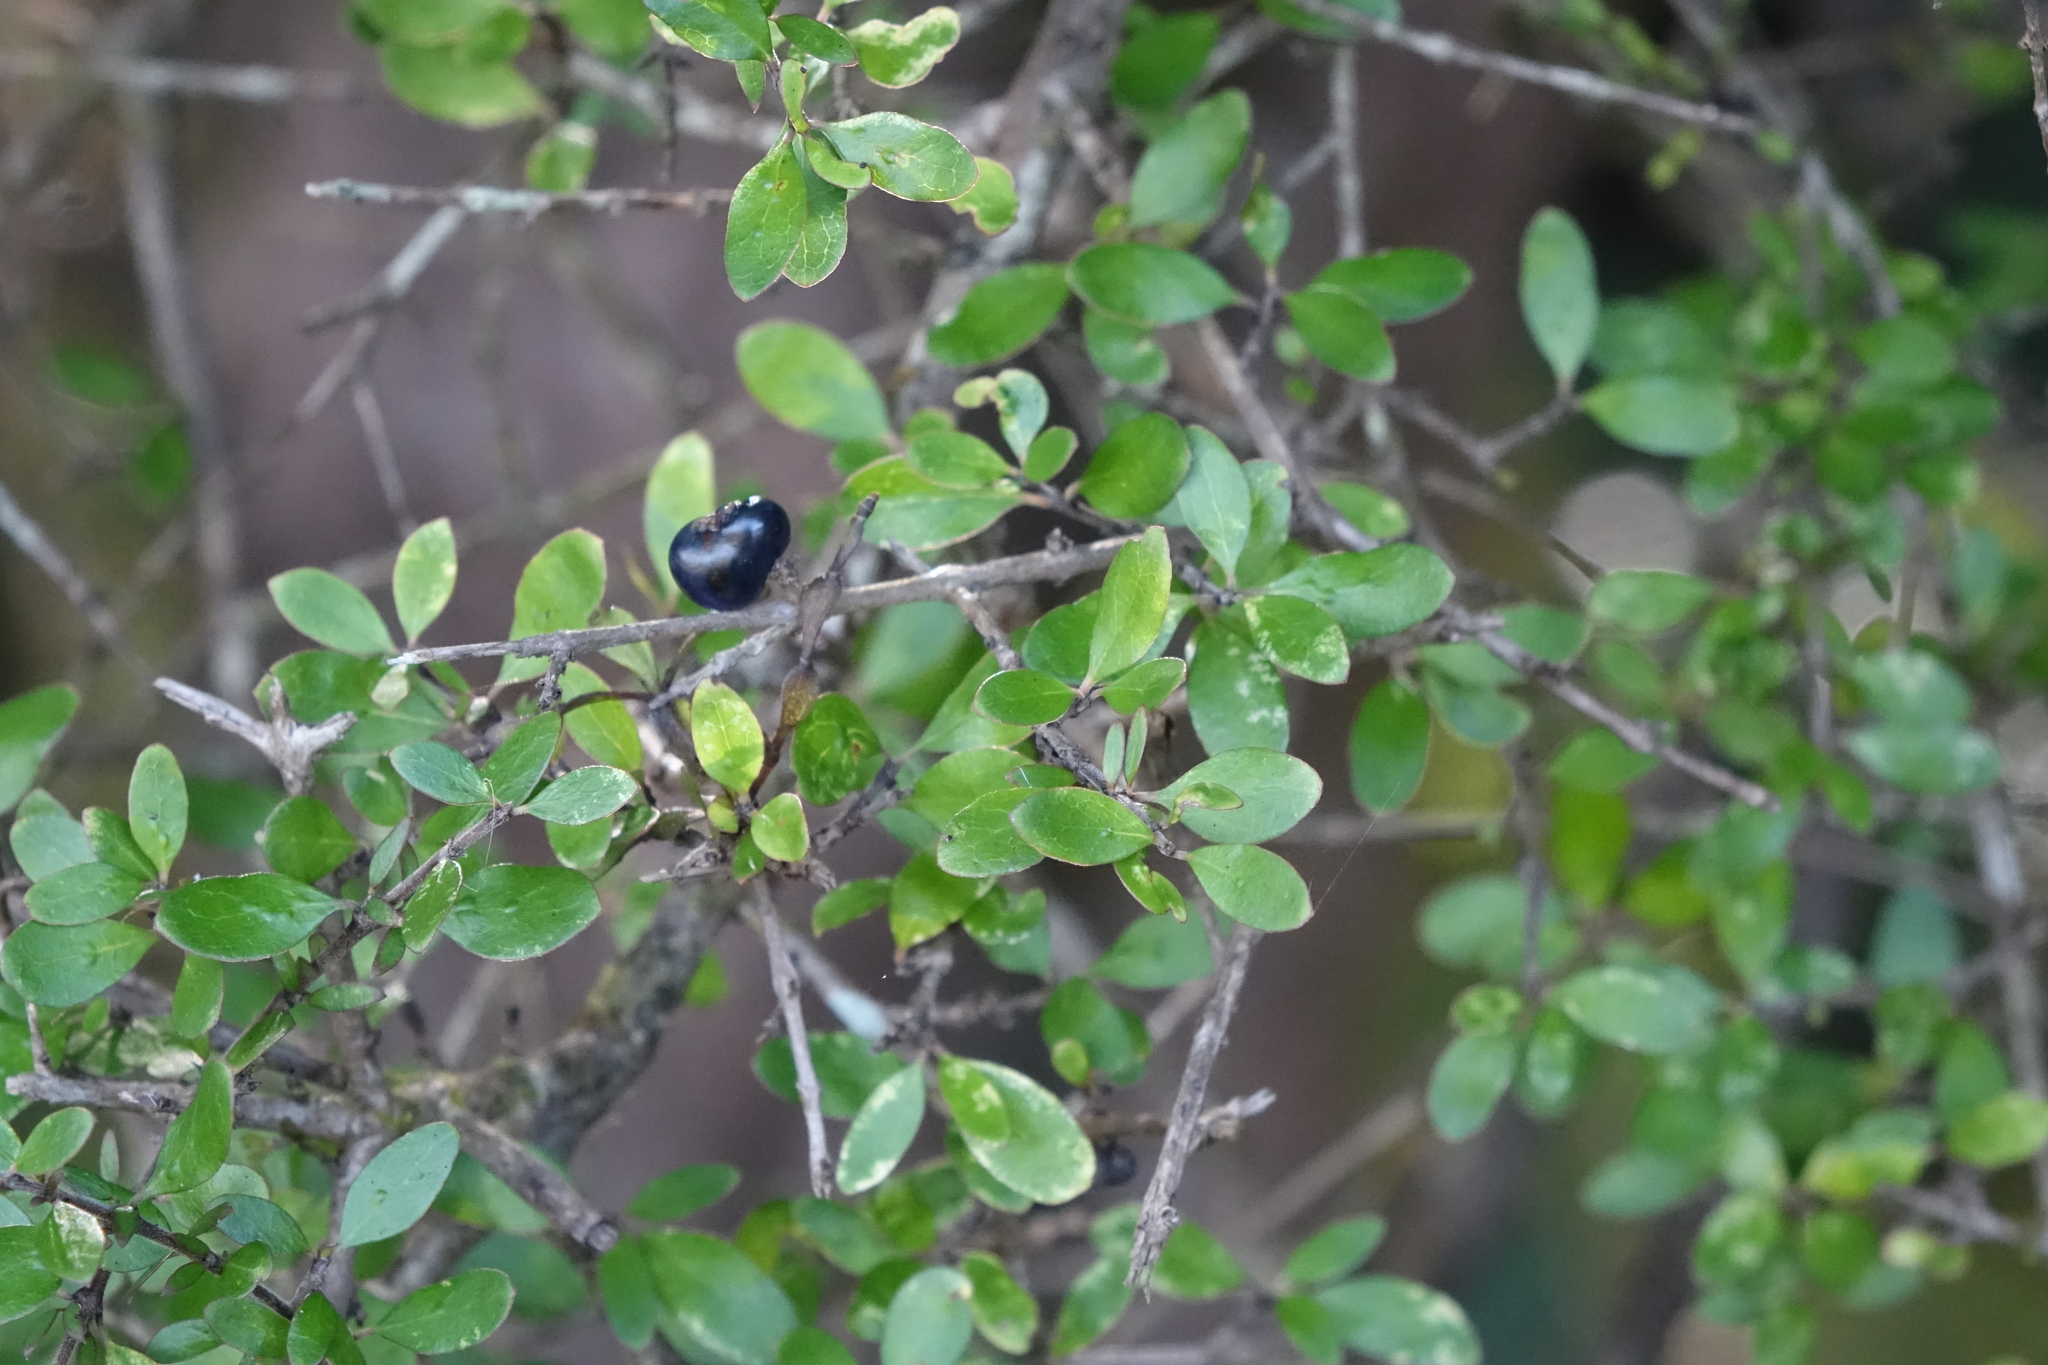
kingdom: Plantae
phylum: Tracheophyta
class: Magnoliopsida
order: Gentianales
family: Rubiaceae
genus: Coprosma
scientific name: Coprosma wallii
